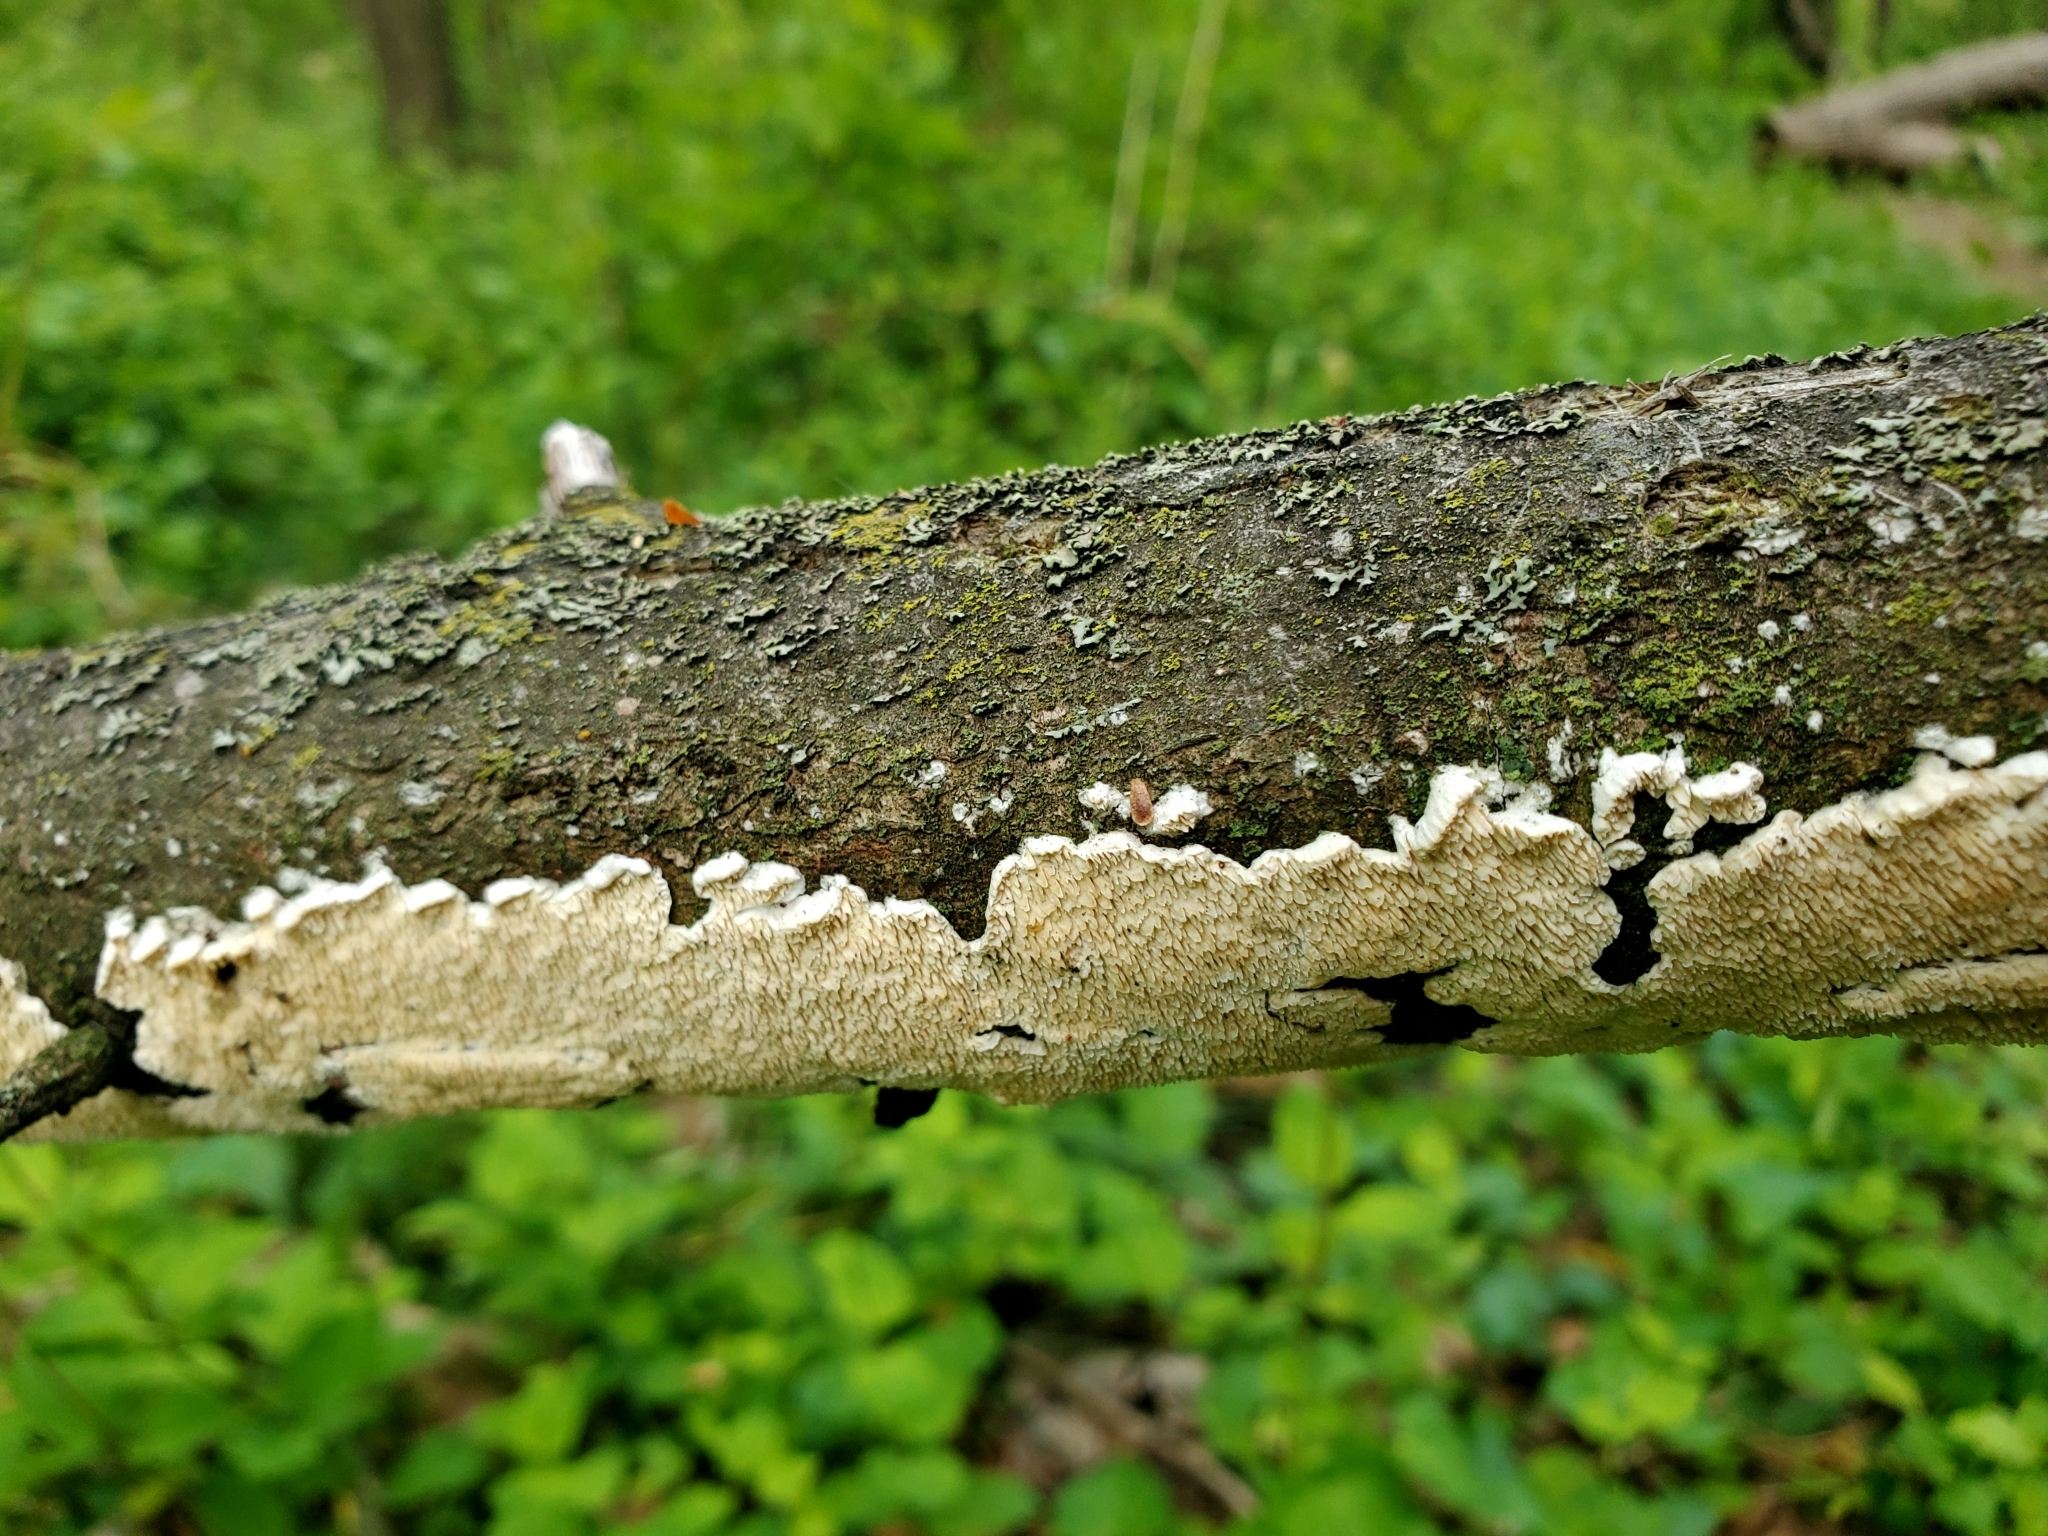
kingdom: Fungi
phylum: Basidiomycota
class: Agaricomycetes
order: Polyporales
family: Irpicaceae
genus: Irpex
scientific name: Irpex lacteus
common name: Milk-white toothed polypore
